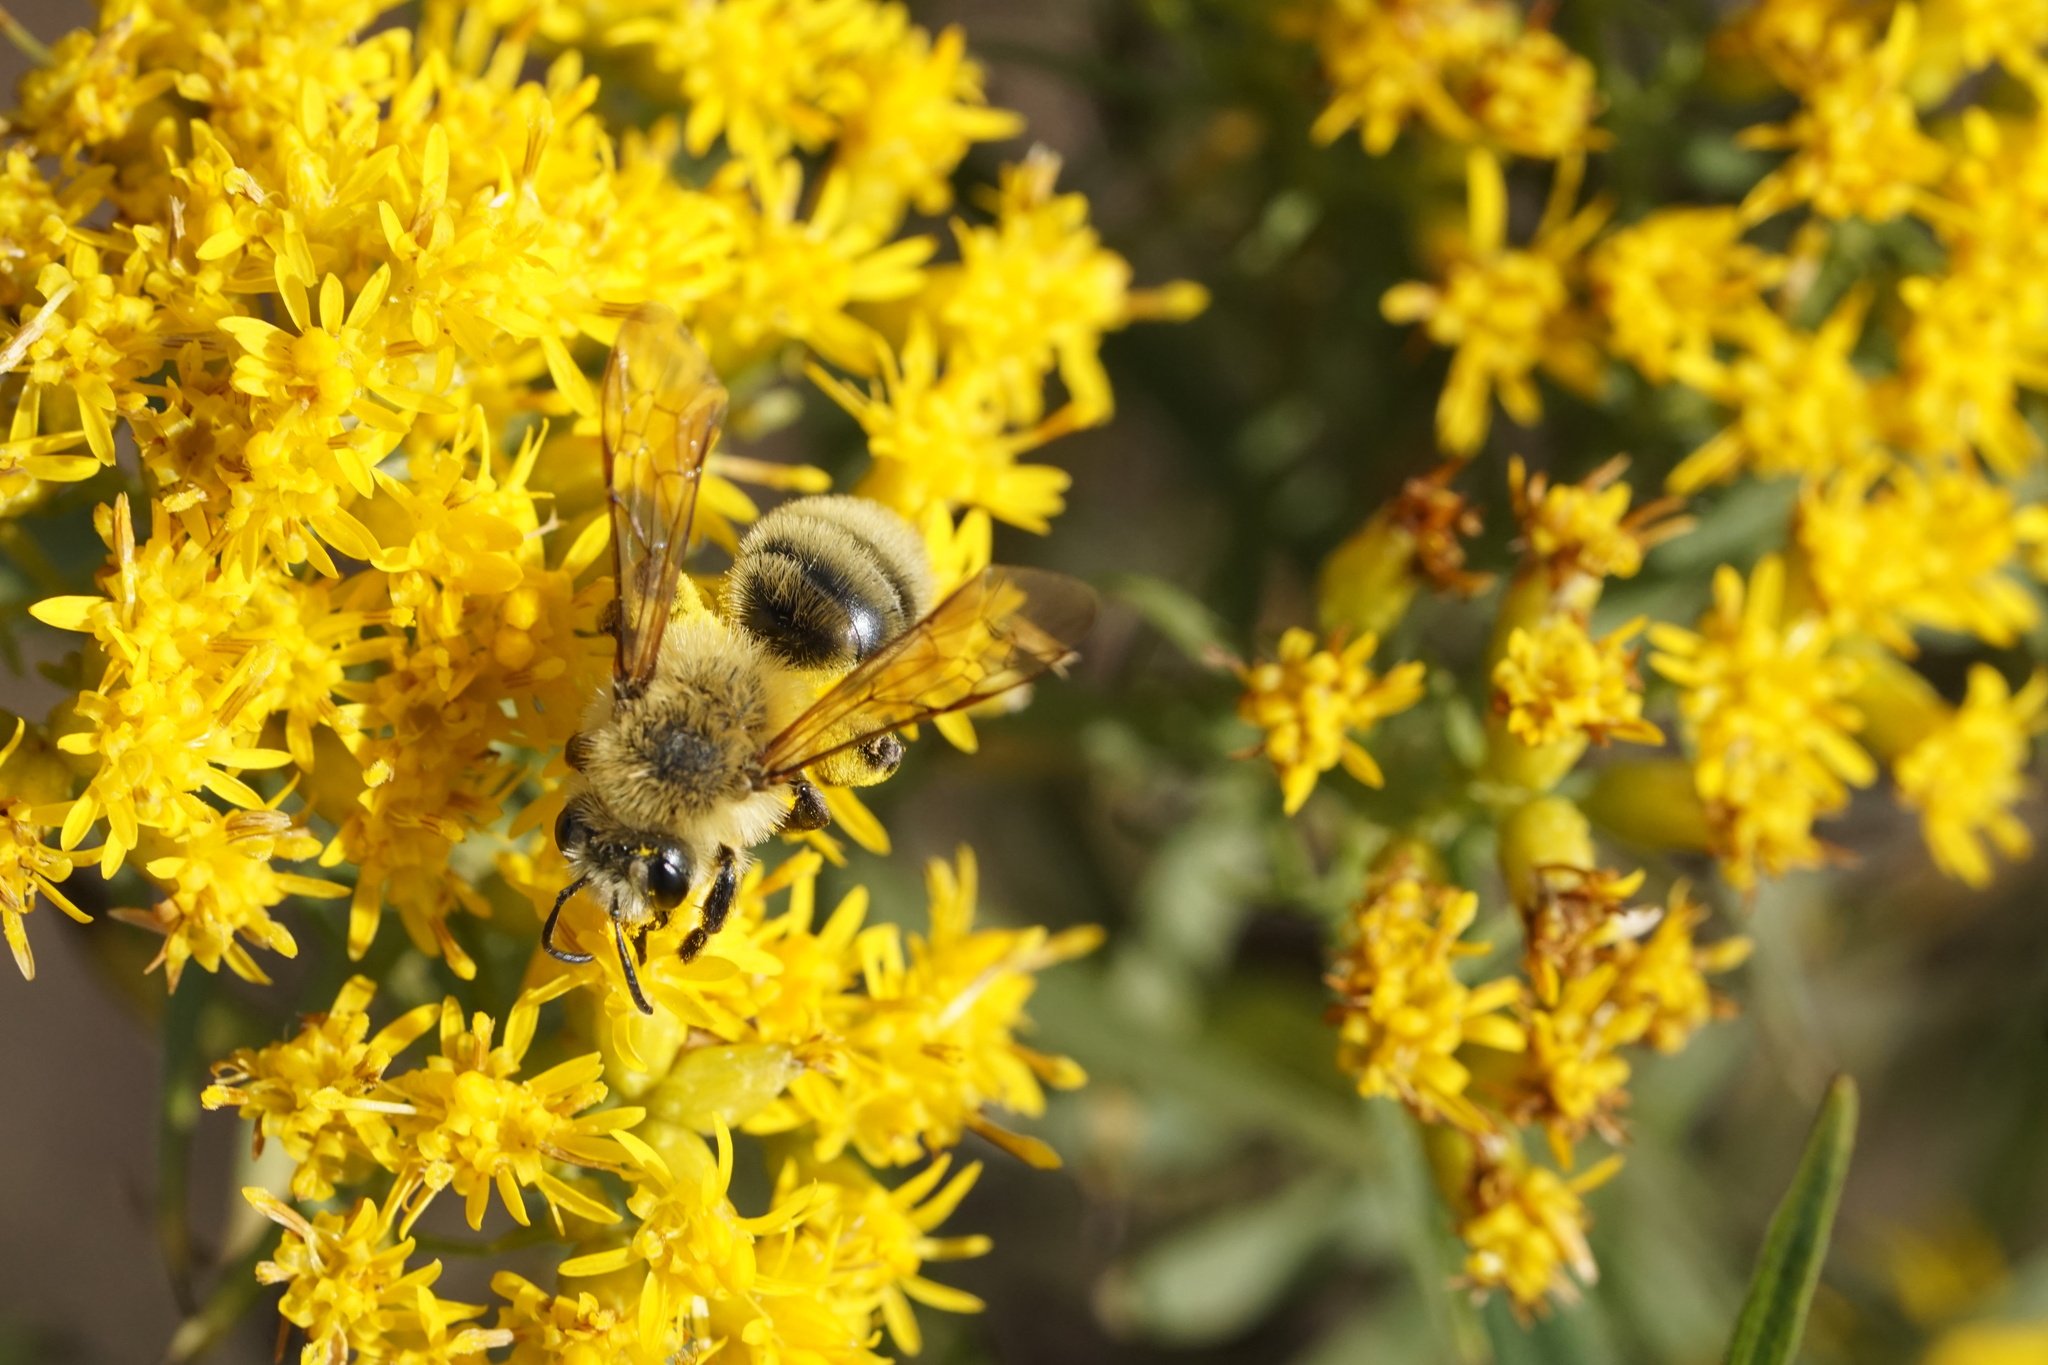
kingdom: Animalia
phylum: Arthropoda
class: Insecta
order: Hymenoptera
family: Andrenidae
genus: Andrena
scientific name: Andrena hirticincta
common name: Hairy-banded mining bee
